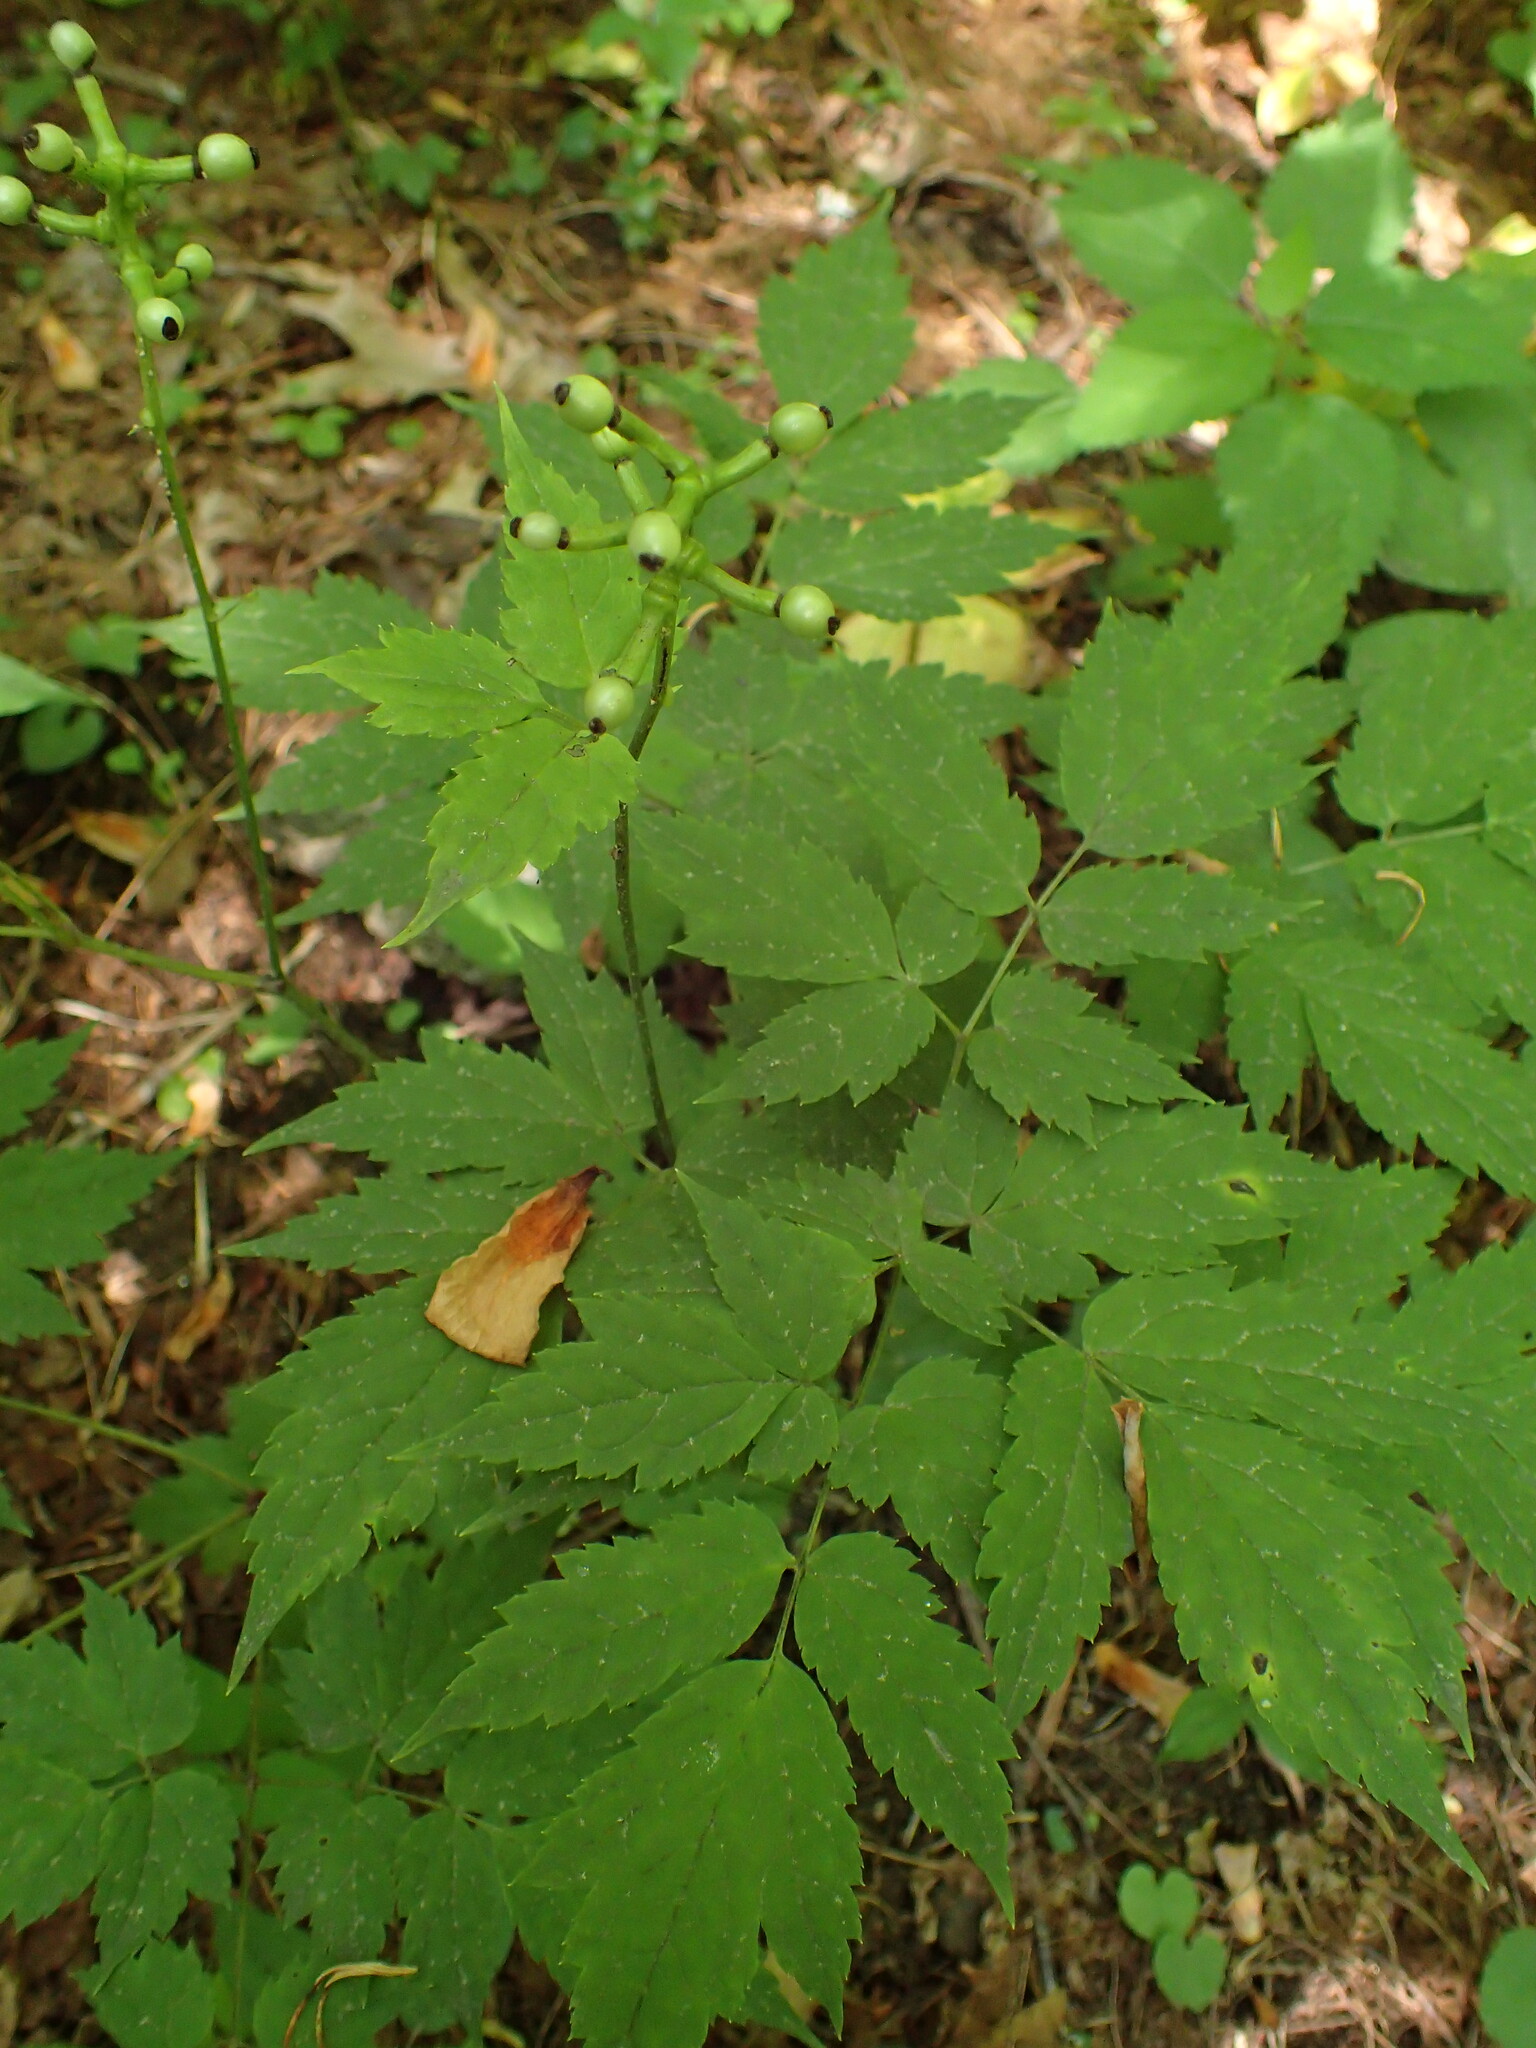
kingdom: Plantae
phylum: Tracheophyta
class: Magnoliopsida
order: Ranunculales
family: Ranunculaceae
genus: Actaea
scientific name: Actaea pachypoda
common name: Doll's-eyes
